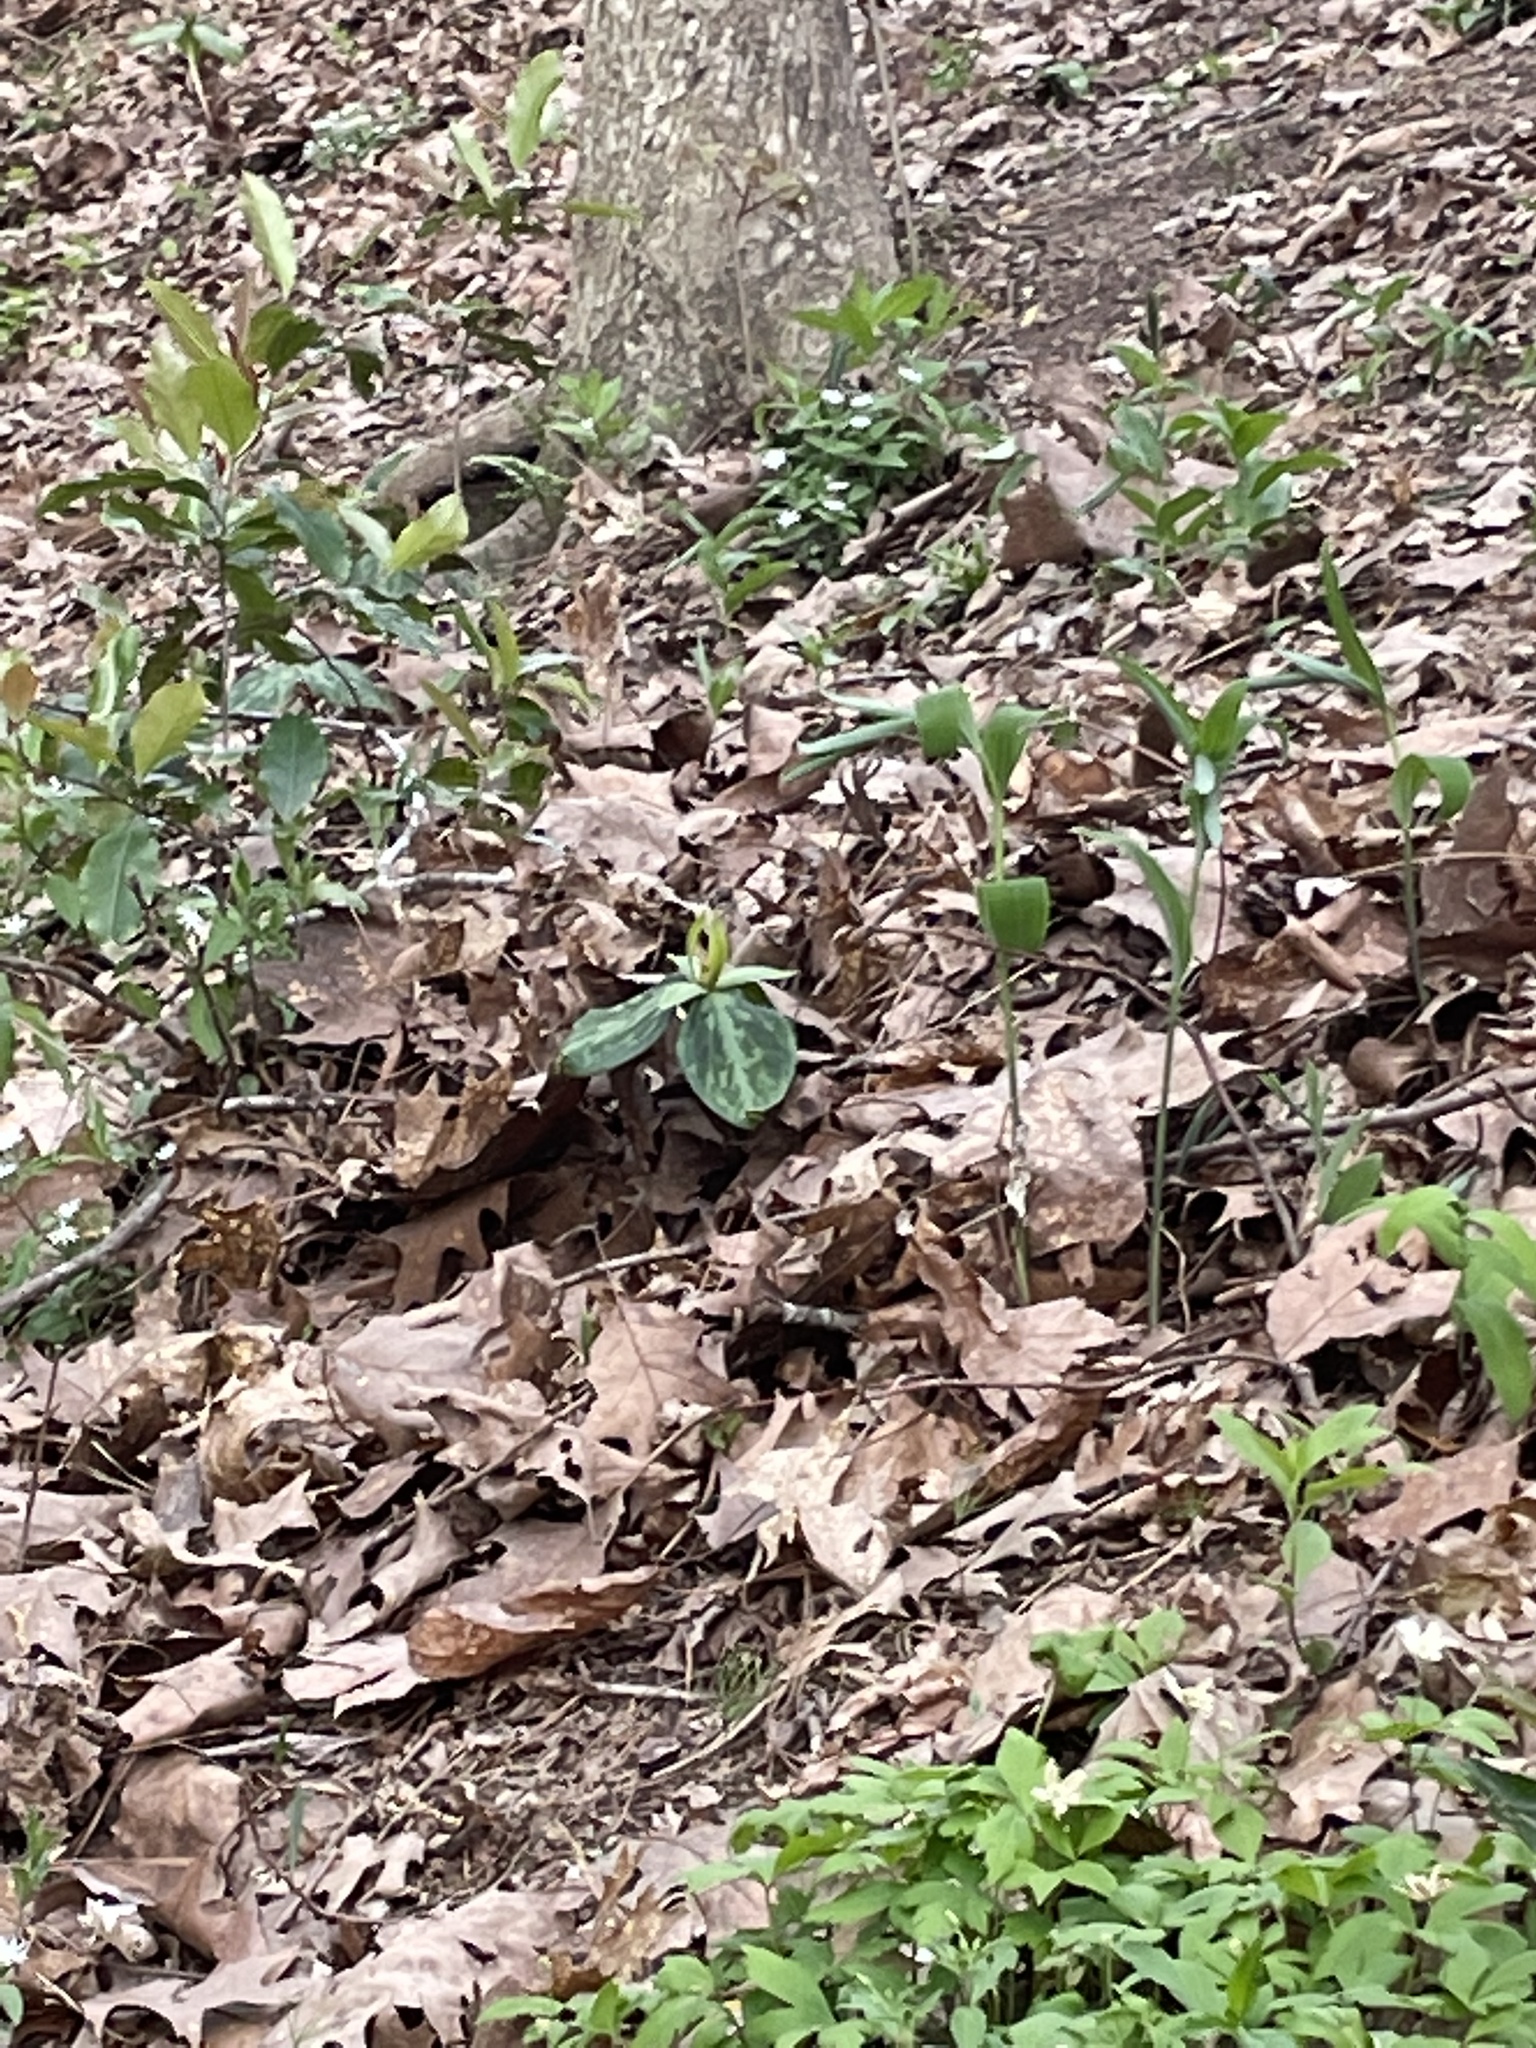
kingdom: Plantae
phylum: Tracheophyta
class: Liliopsida
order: Liliales
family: Melanthiaceae
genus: Trillium
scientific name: Trillium cuneatum
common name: Cuneate trillium
